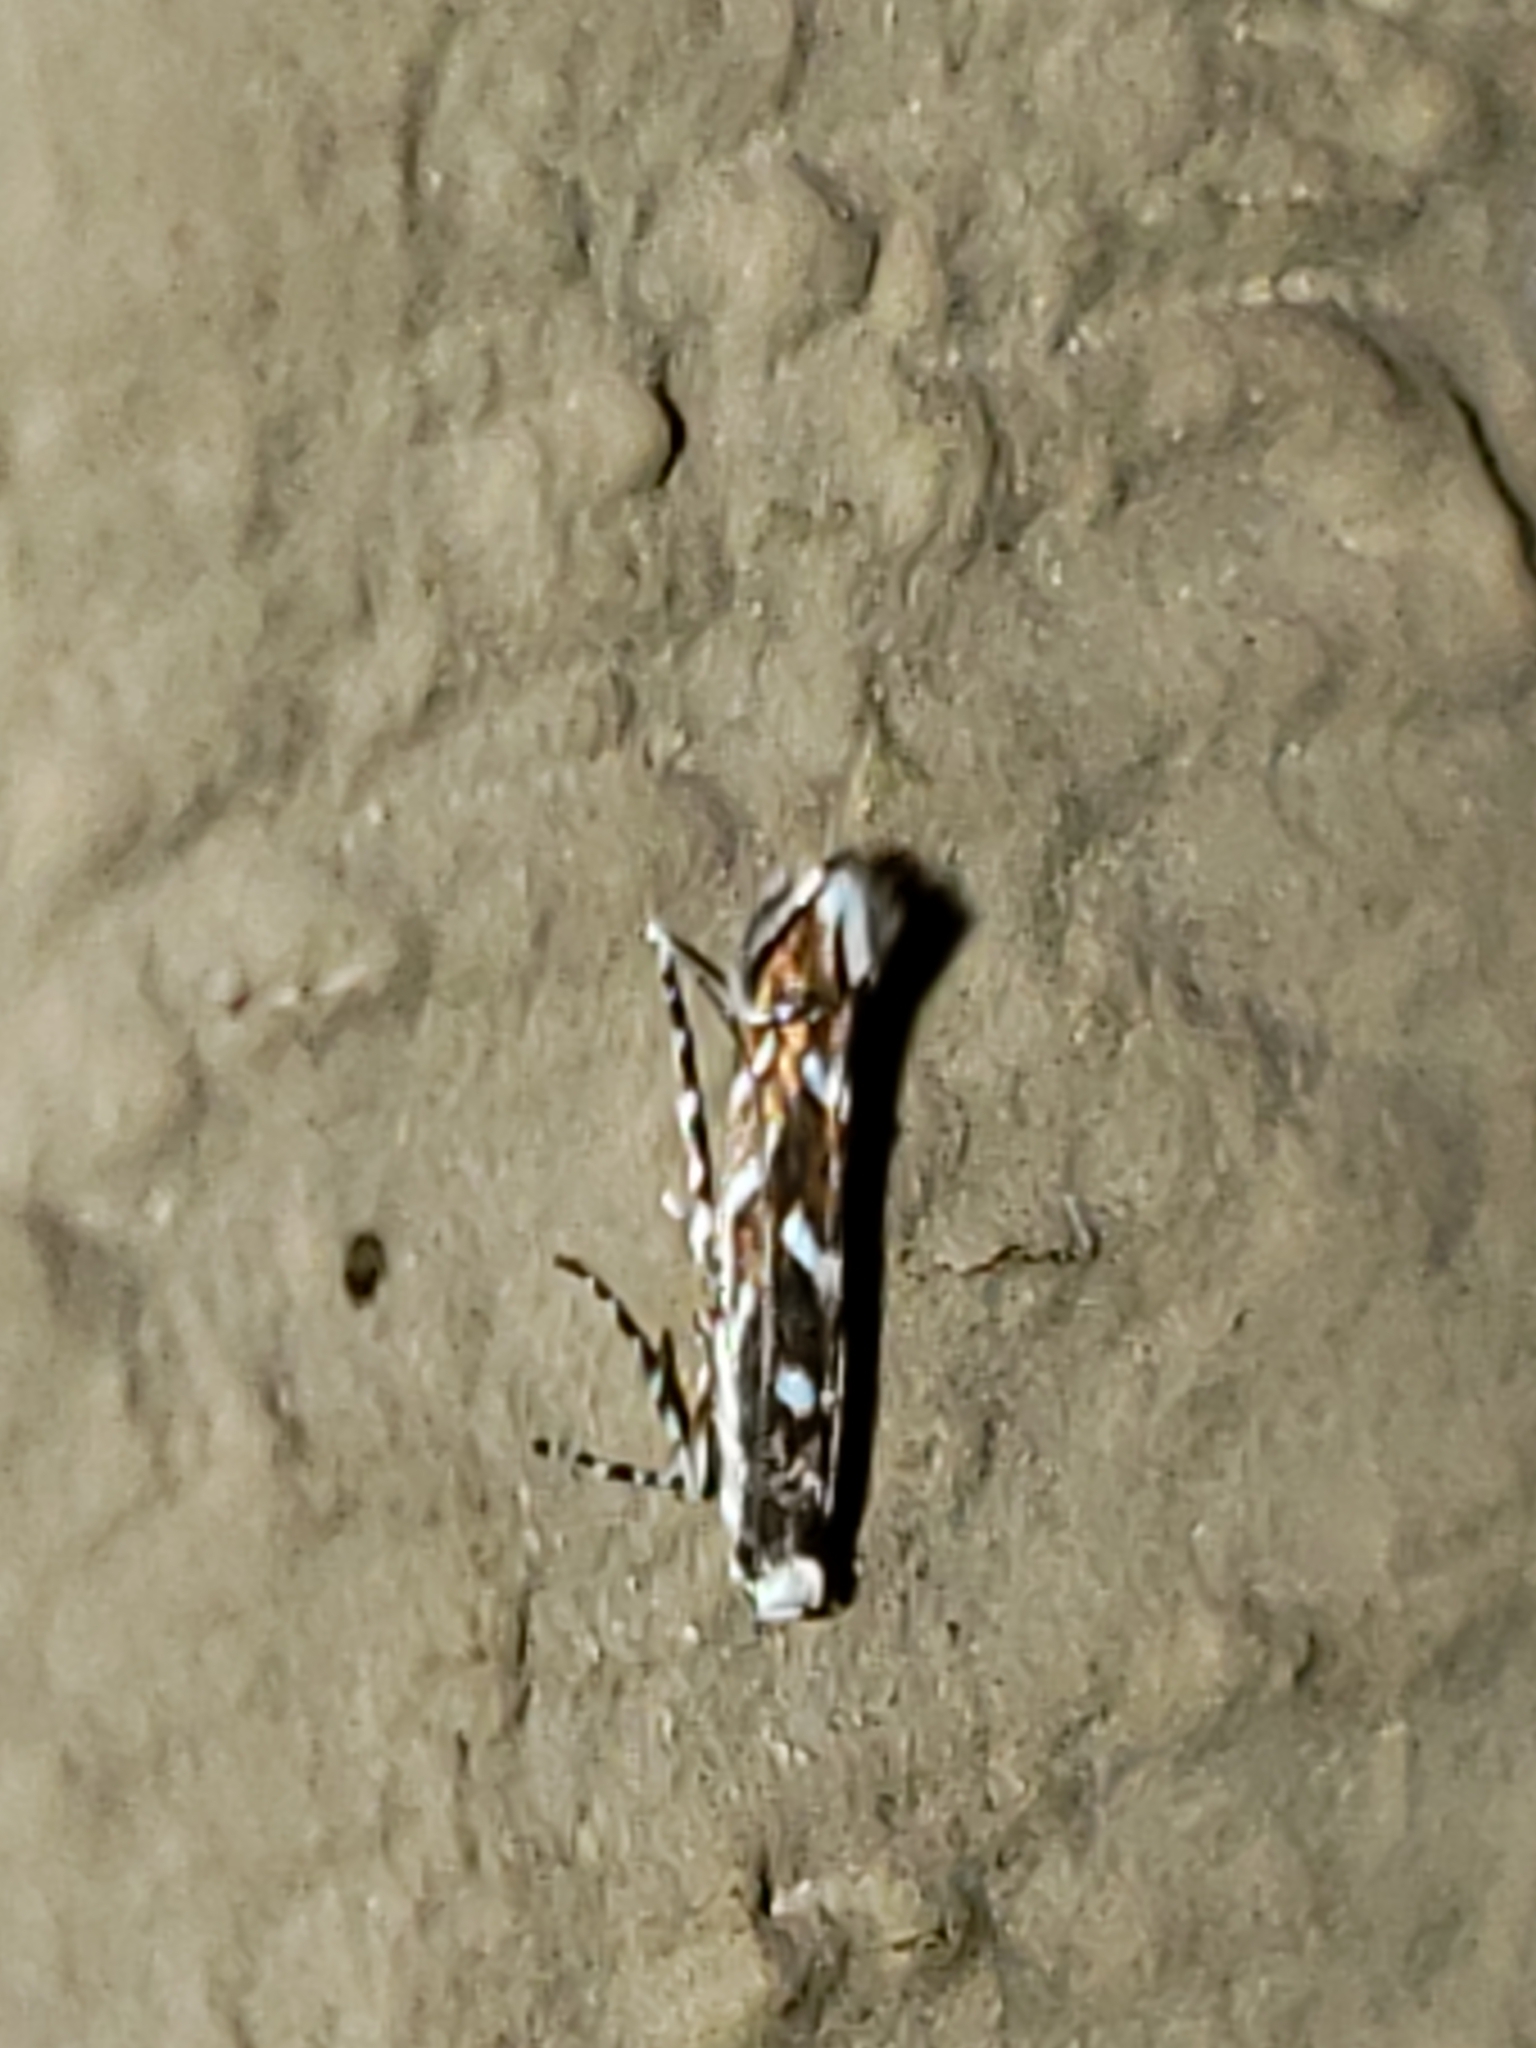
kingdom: Animalia
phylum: Arthropoda
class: Insecta
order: Lepidoptera
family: Gracillariidae
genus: Parectopa
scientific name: Parectopa robiniella
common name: Locust digitate leafminer
